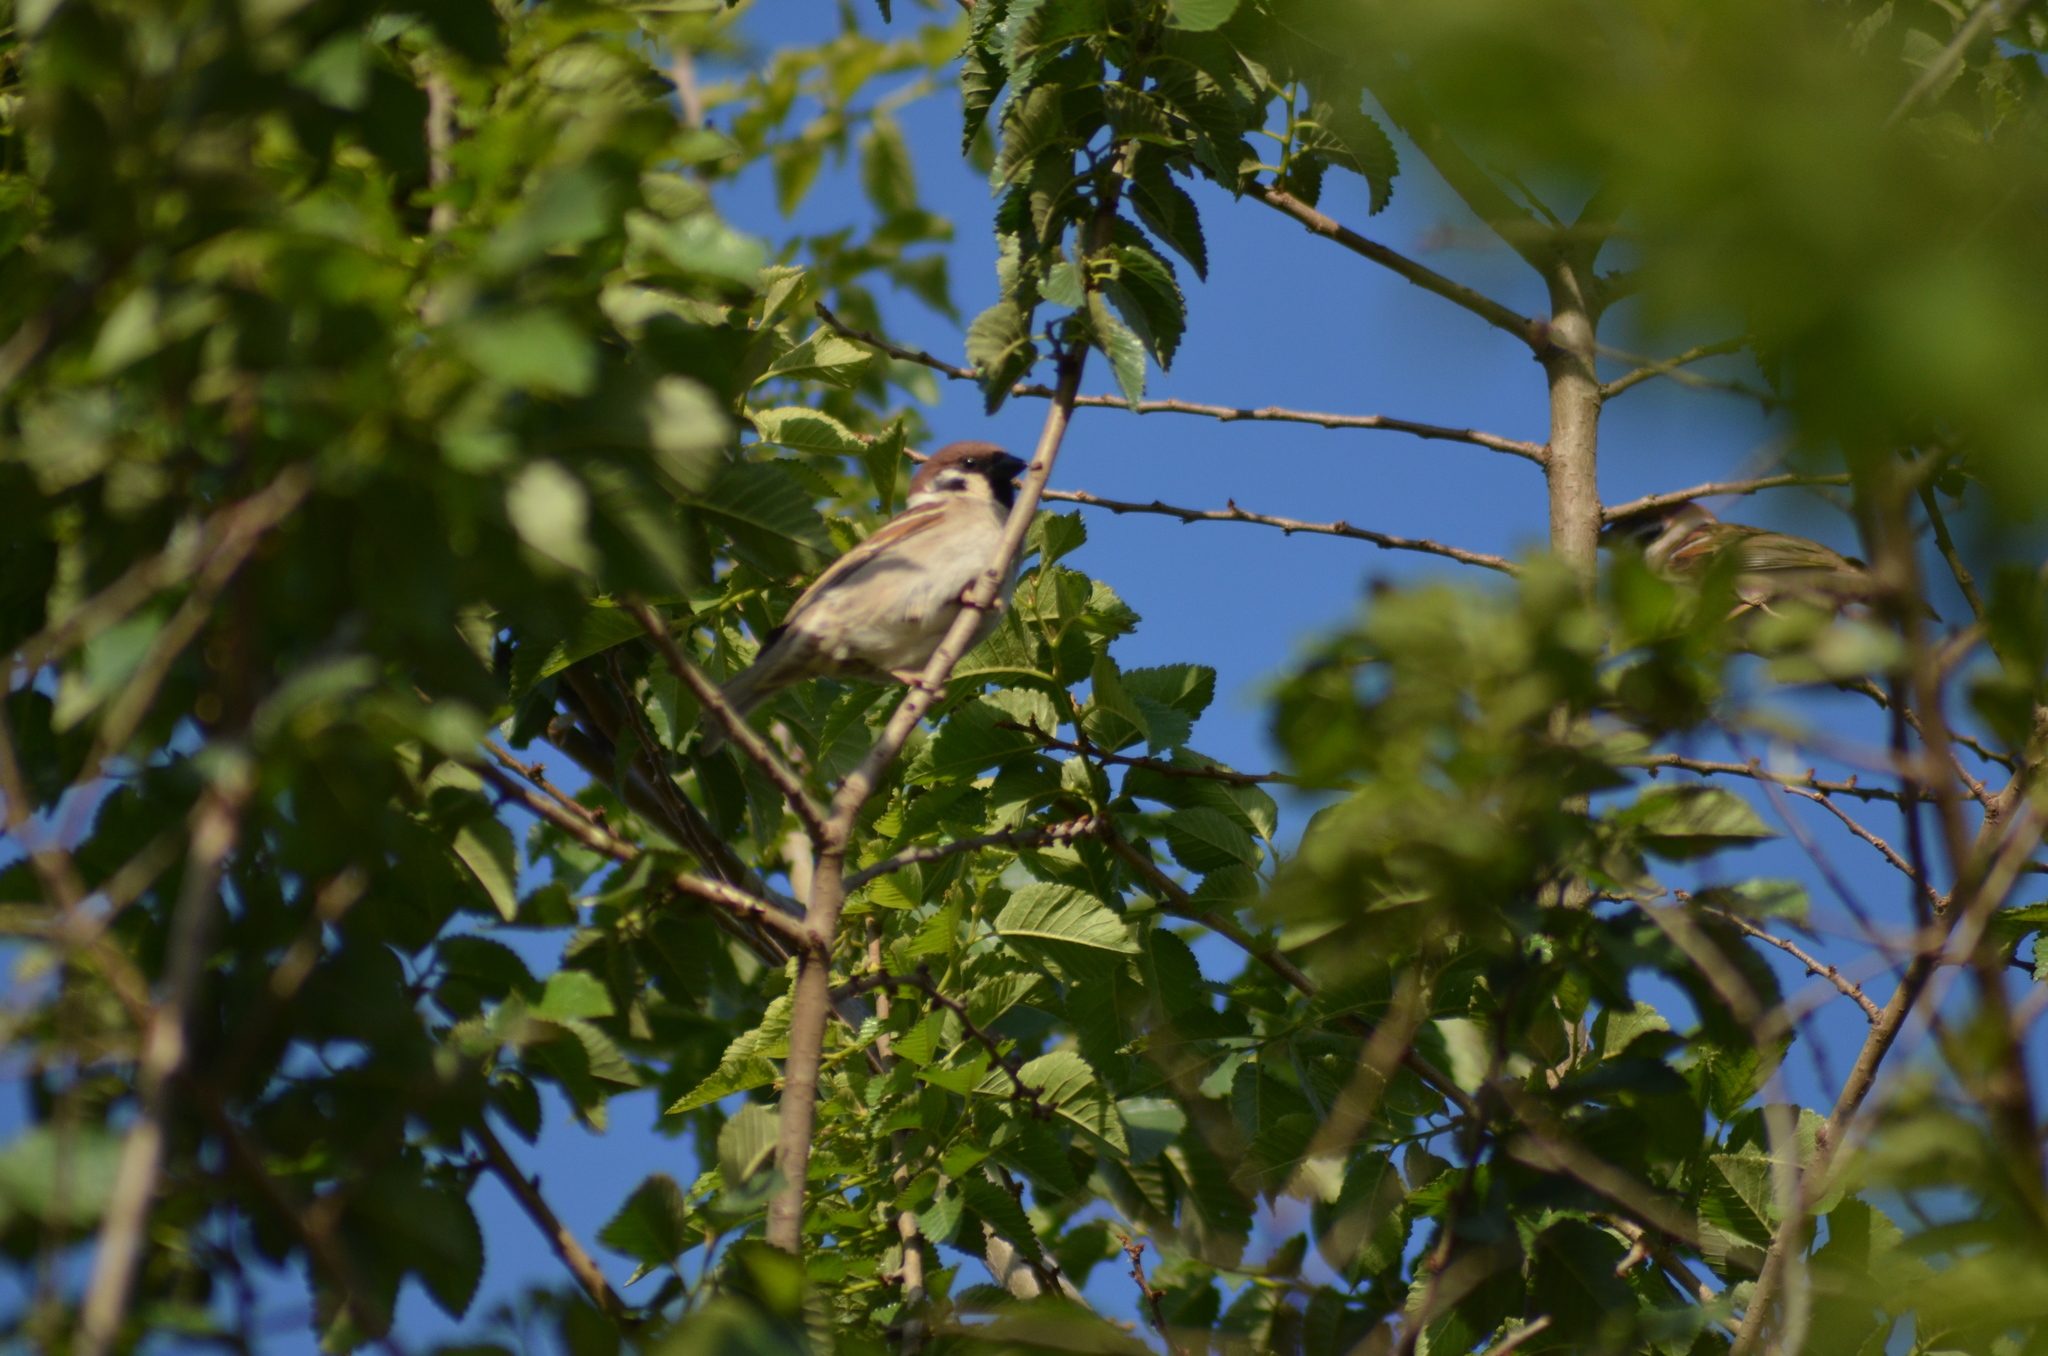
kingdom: Animalia
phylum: Chordata
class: Aves
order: Passeriformes
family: Passeridae
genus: Passer
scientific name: Passer montanus
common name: Eurasian tree sparrow
